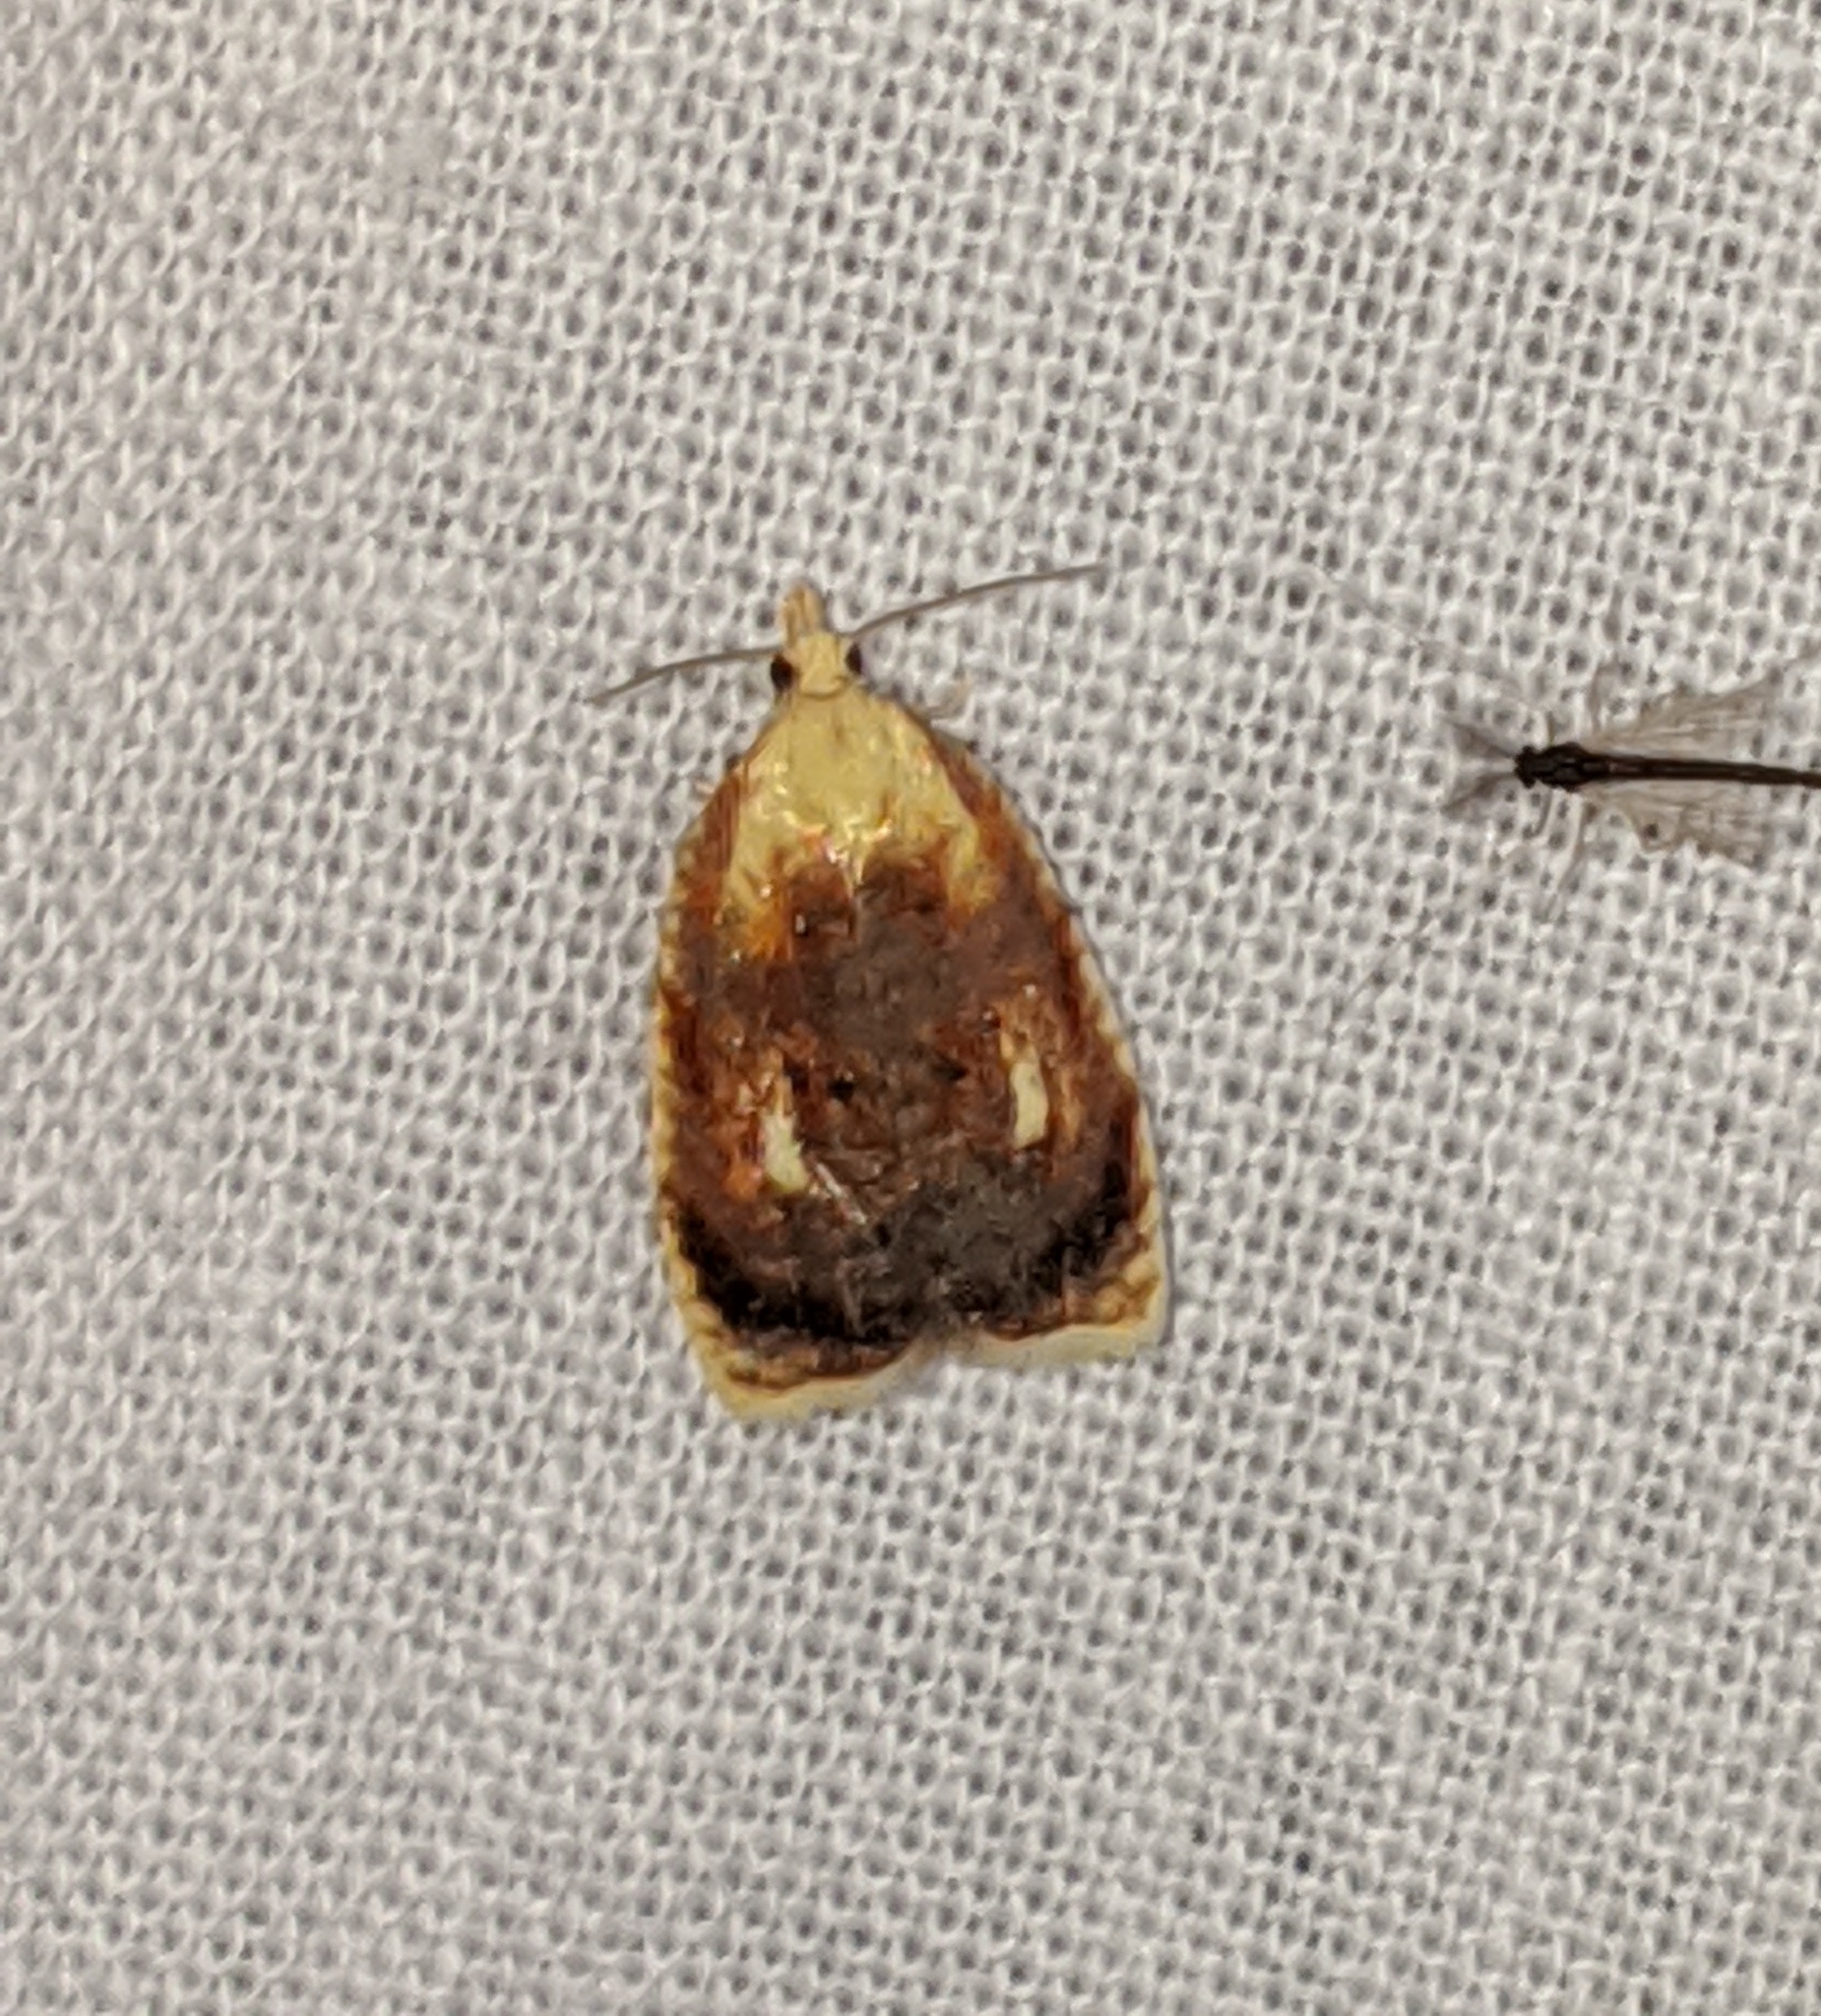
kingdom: Animalia
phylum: Arthropoda
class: Insecta
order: Lepidoptera
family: Tortricidae
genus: Acleris
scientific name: Acleris curvalana
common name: Blueberry leaftier moth
